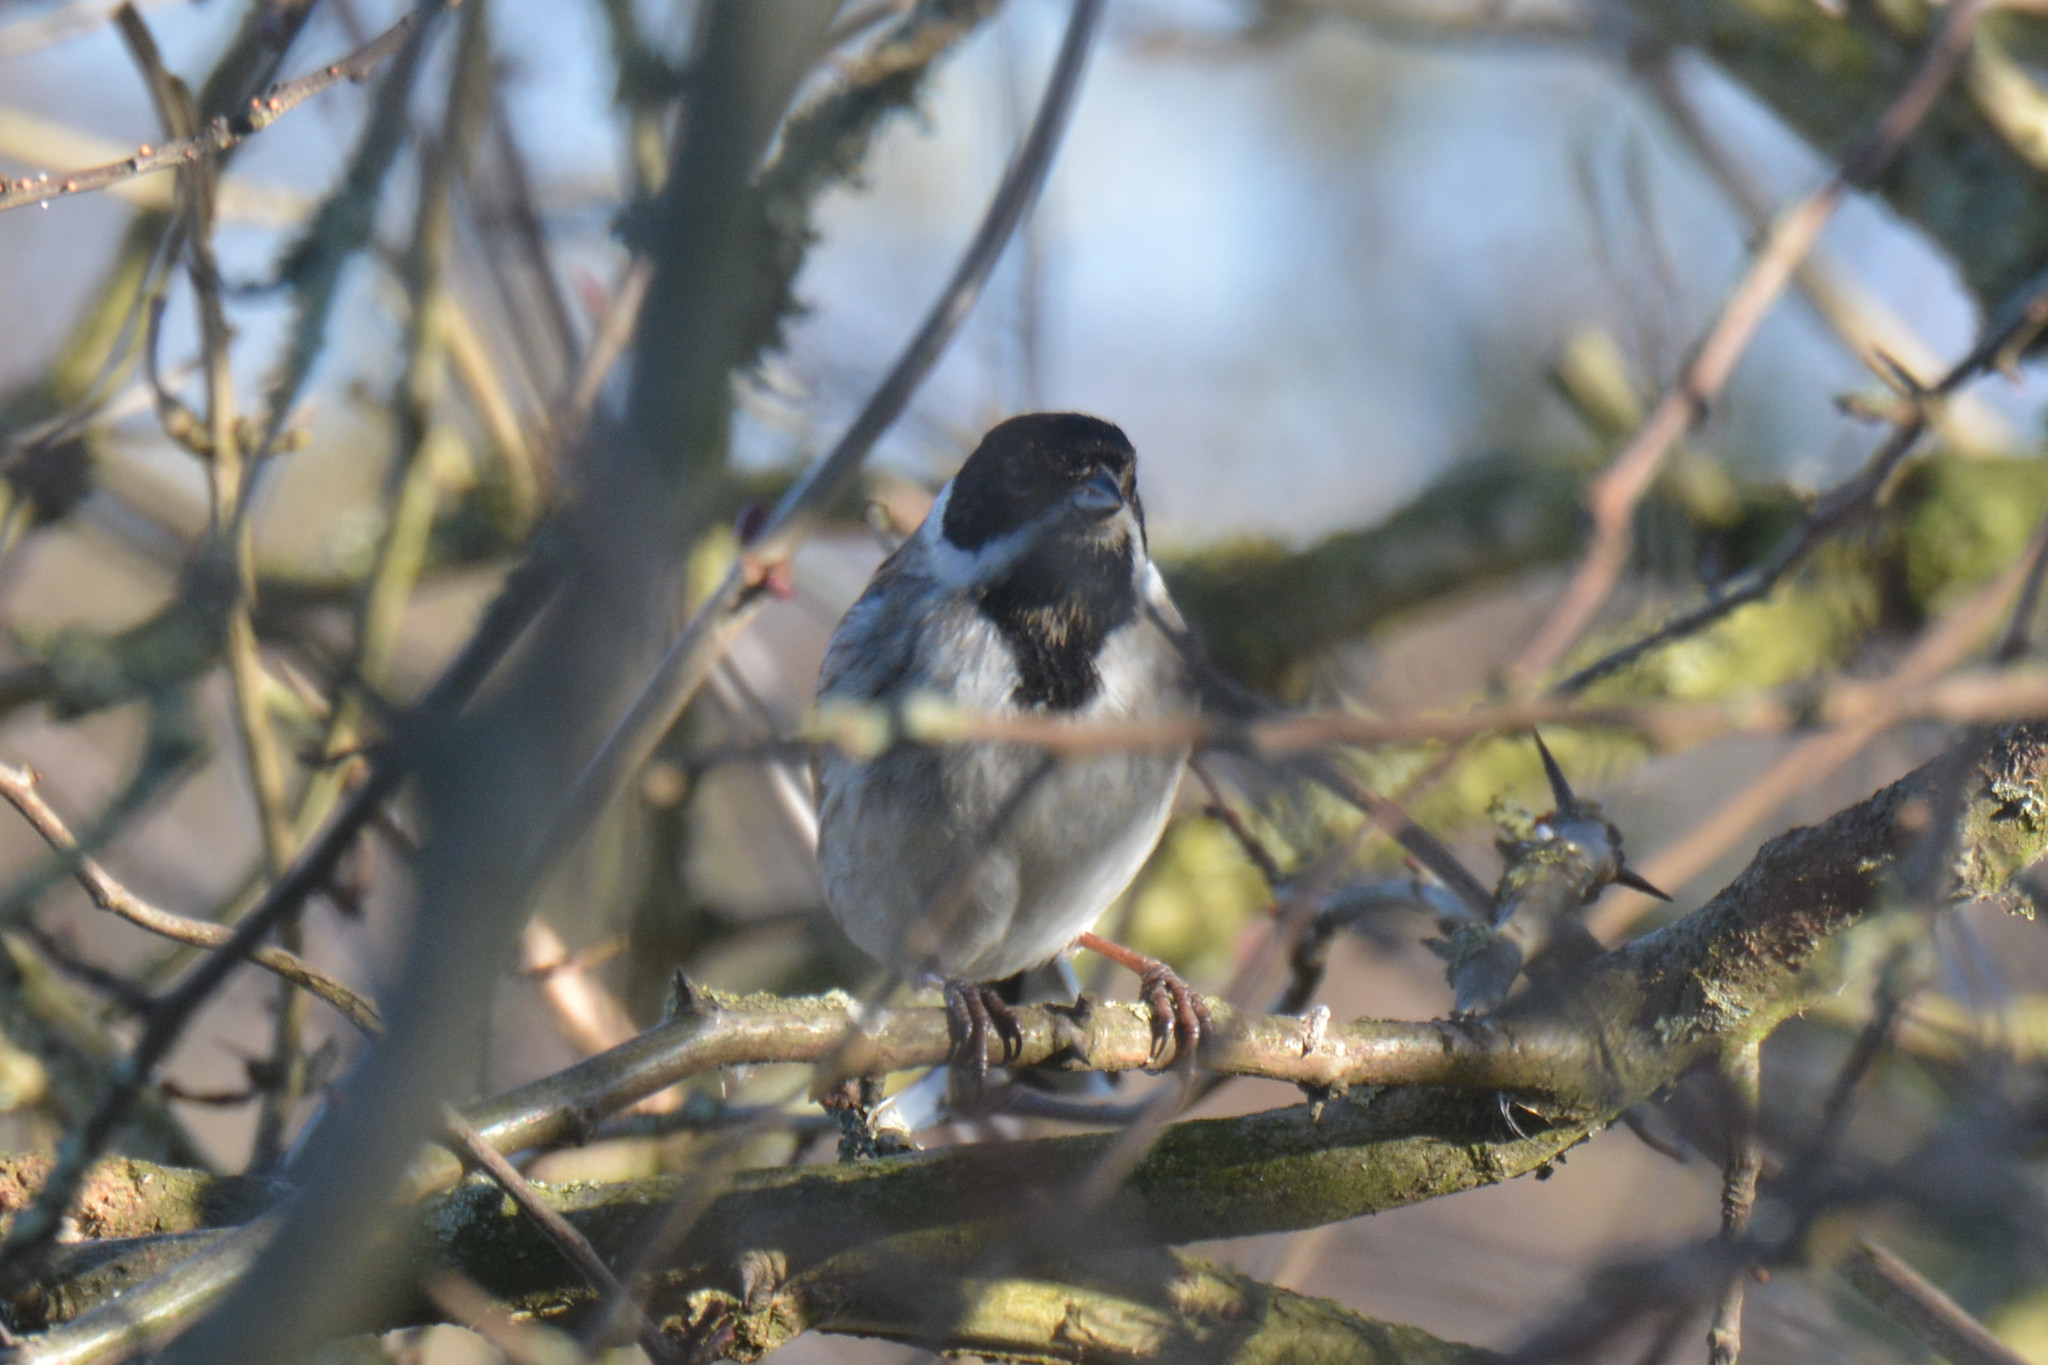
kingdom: Animalia
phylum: Chordata
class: Aves
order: Passeriformes
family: Emberizidae
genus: Emberiza
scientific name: Emberiza schoeniclus
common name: Reed bunting
